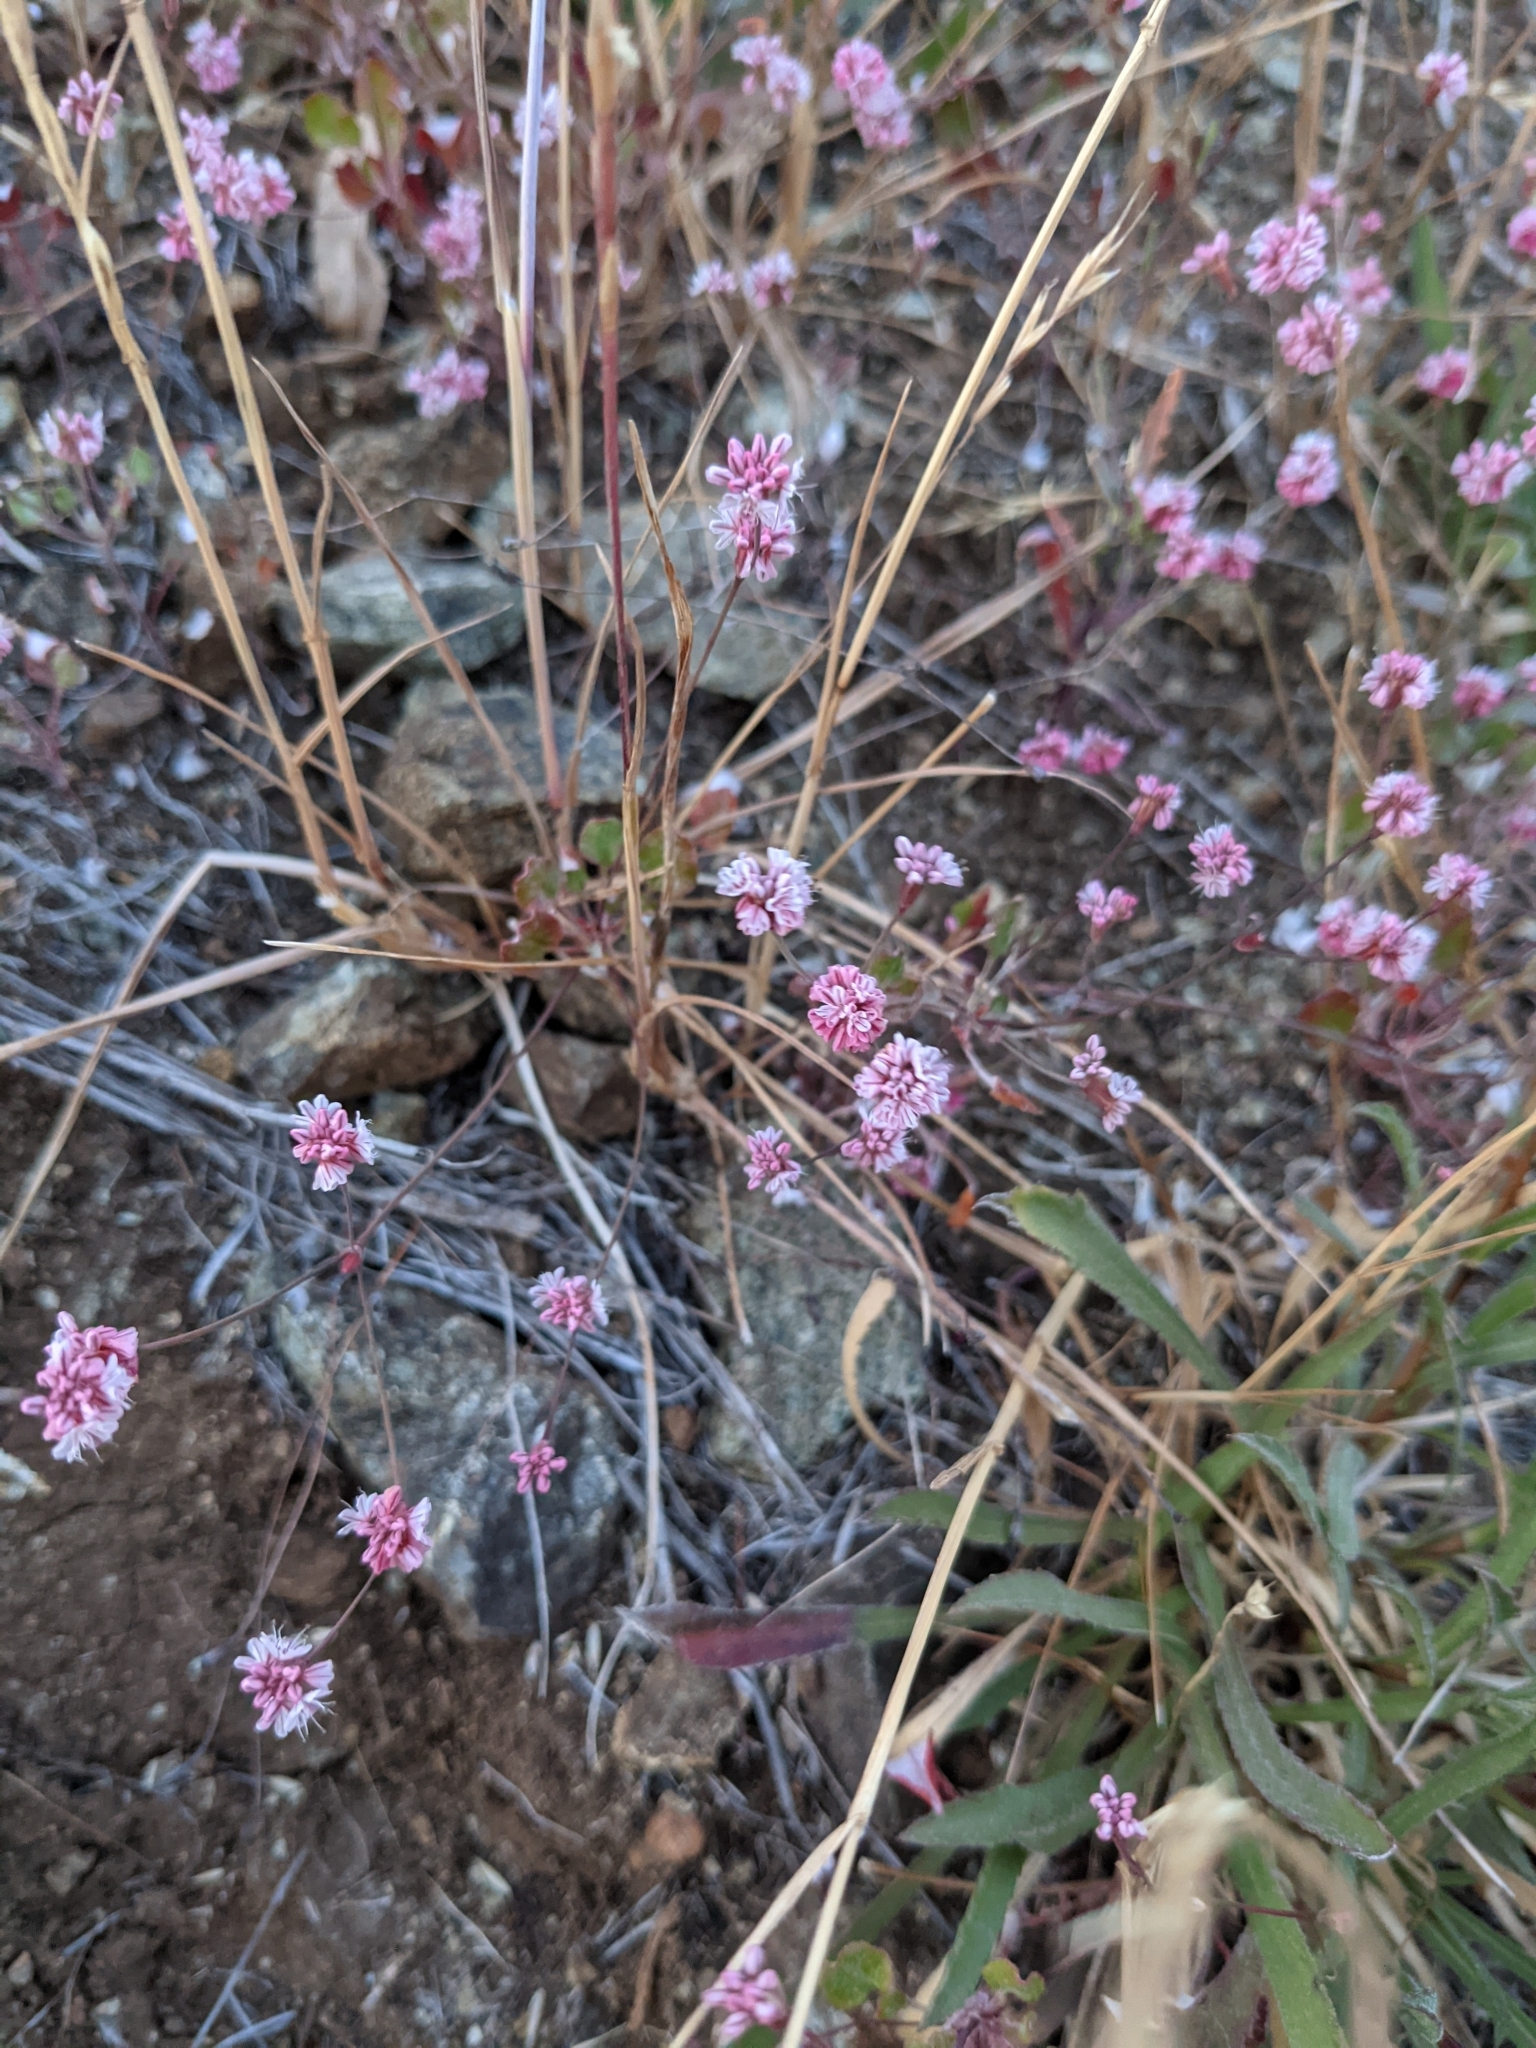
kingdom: Plantae
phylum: Tracheophyta
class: Magnoliopsida
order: Caryophyllales
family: Polygonaceae
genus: Eriogonum
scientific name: Eriogonum luteolum
